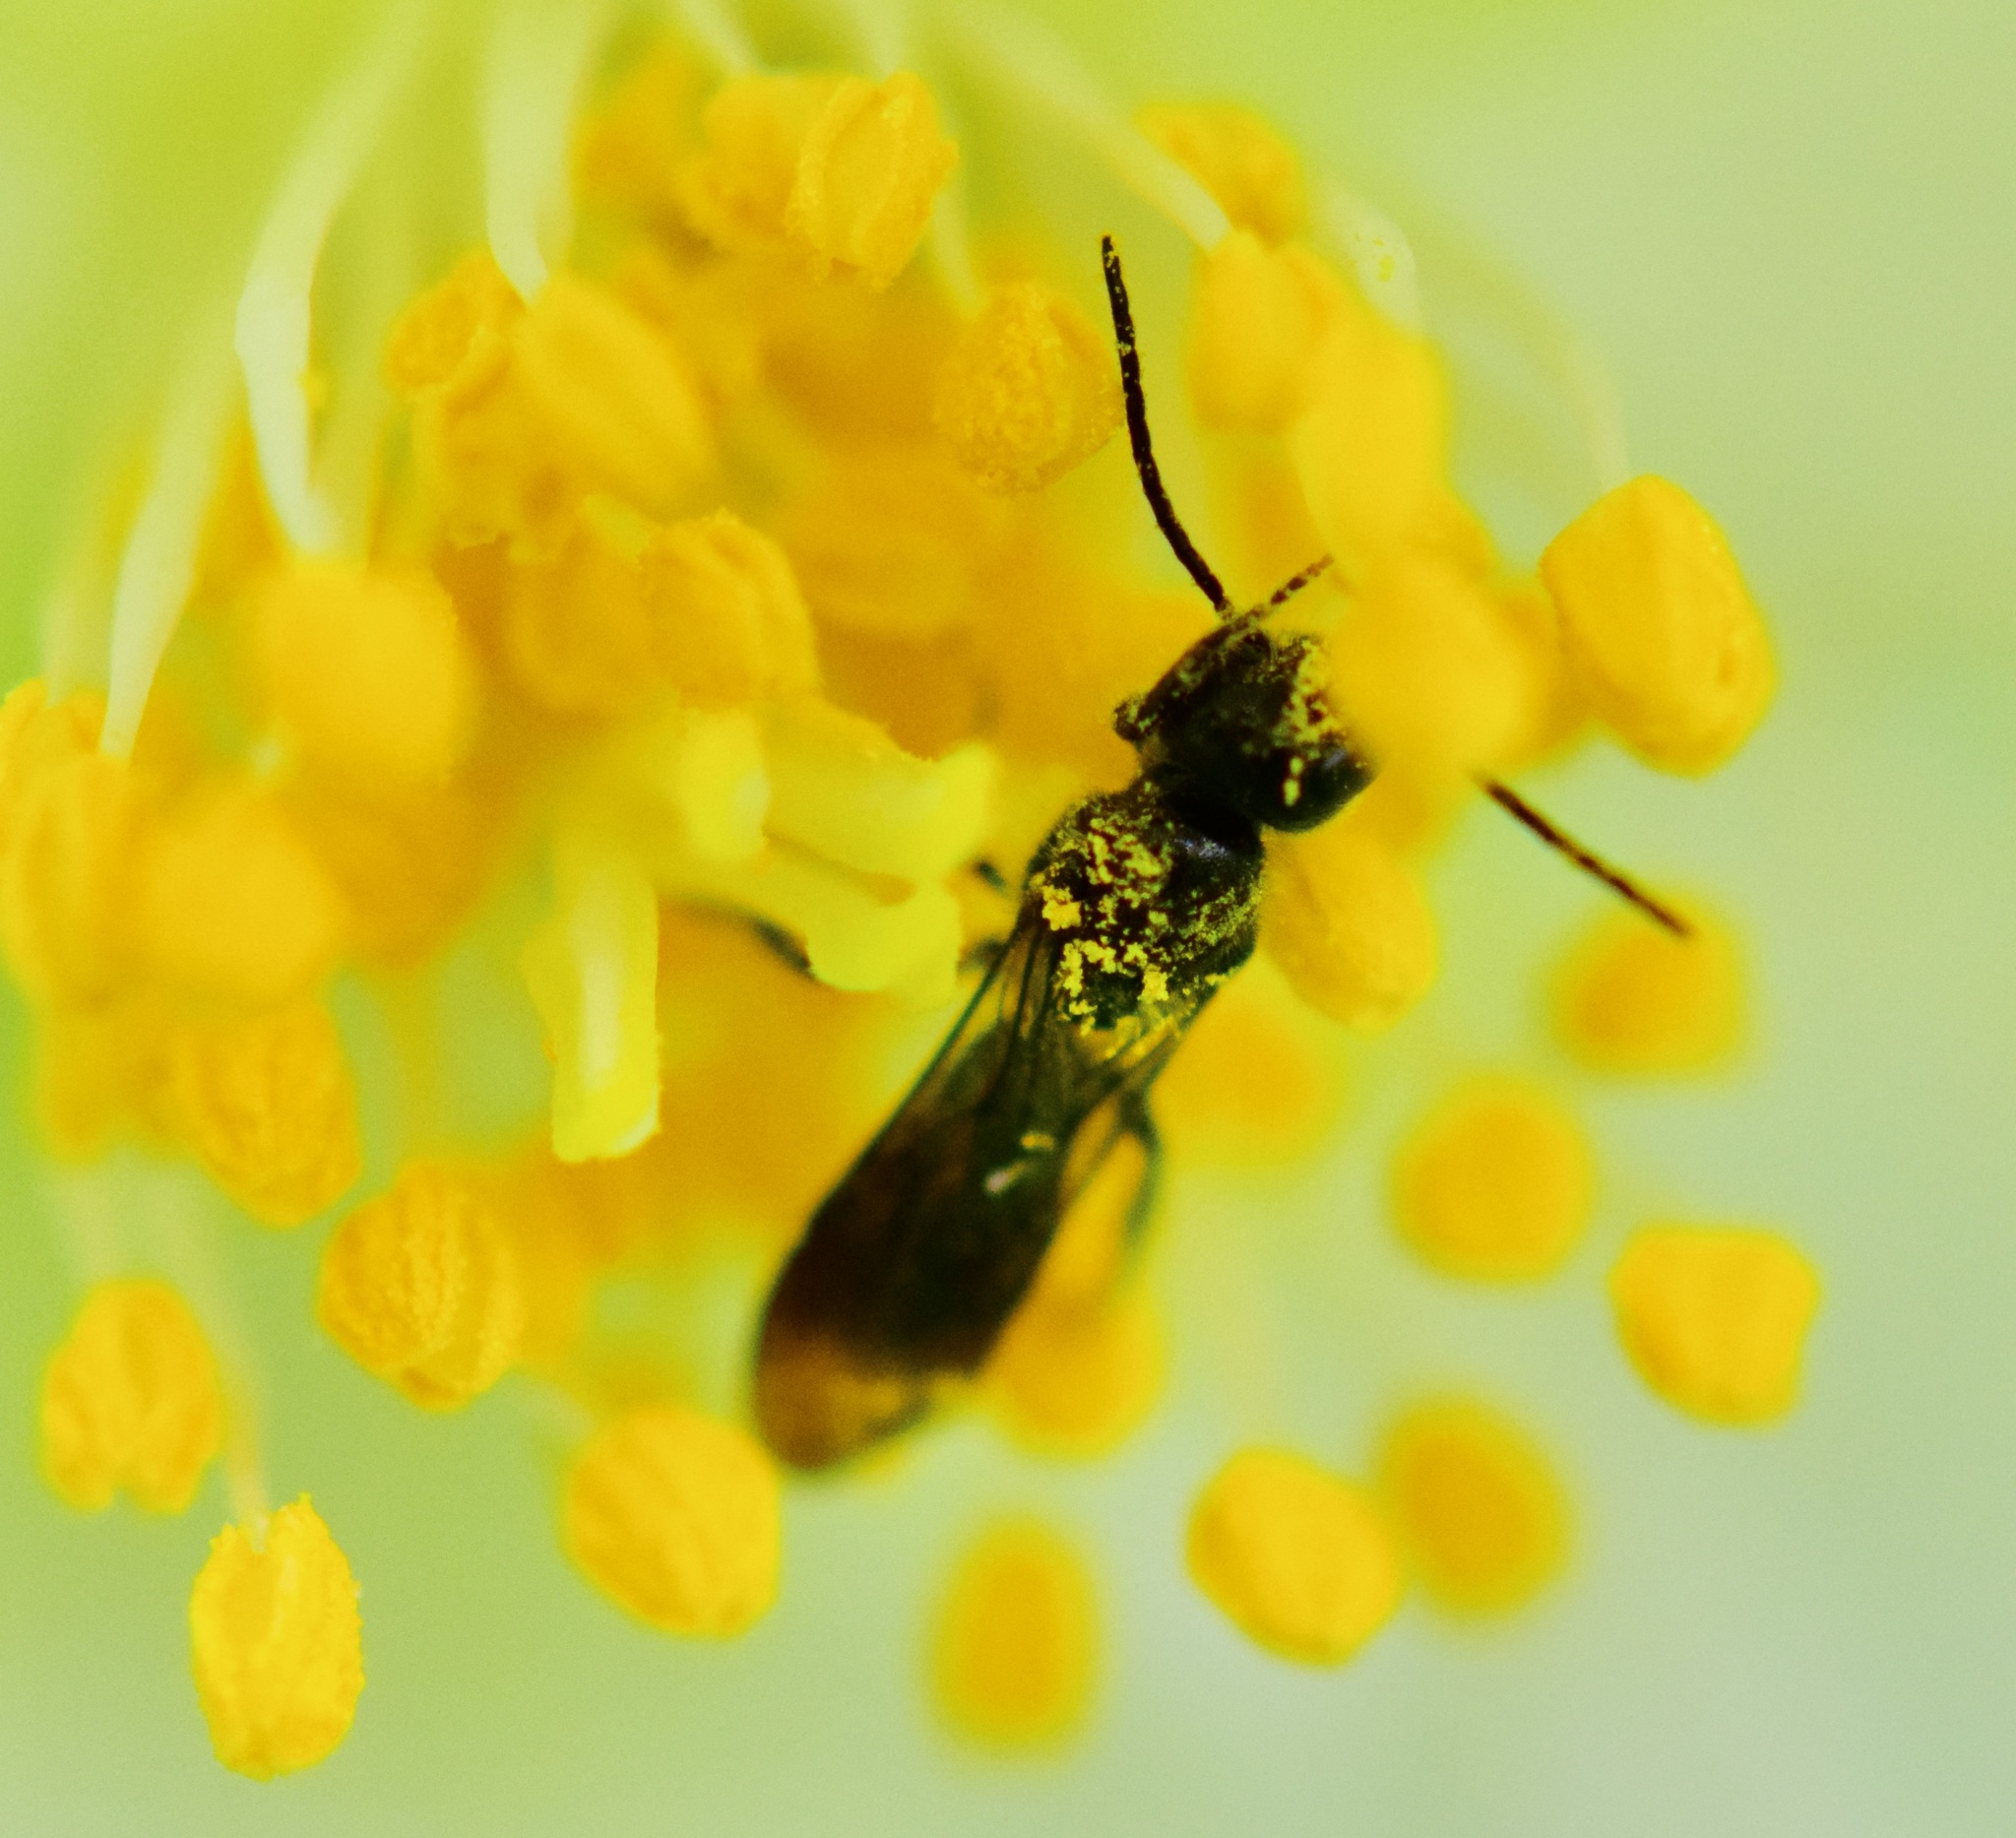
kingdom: Animalia
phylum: Arthropoda
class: Insecta
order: Hymenoptera
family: Megachilidae
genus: Chelostoma
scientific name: Chelostoma philadelphi
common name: Mock-orange scissor bee
